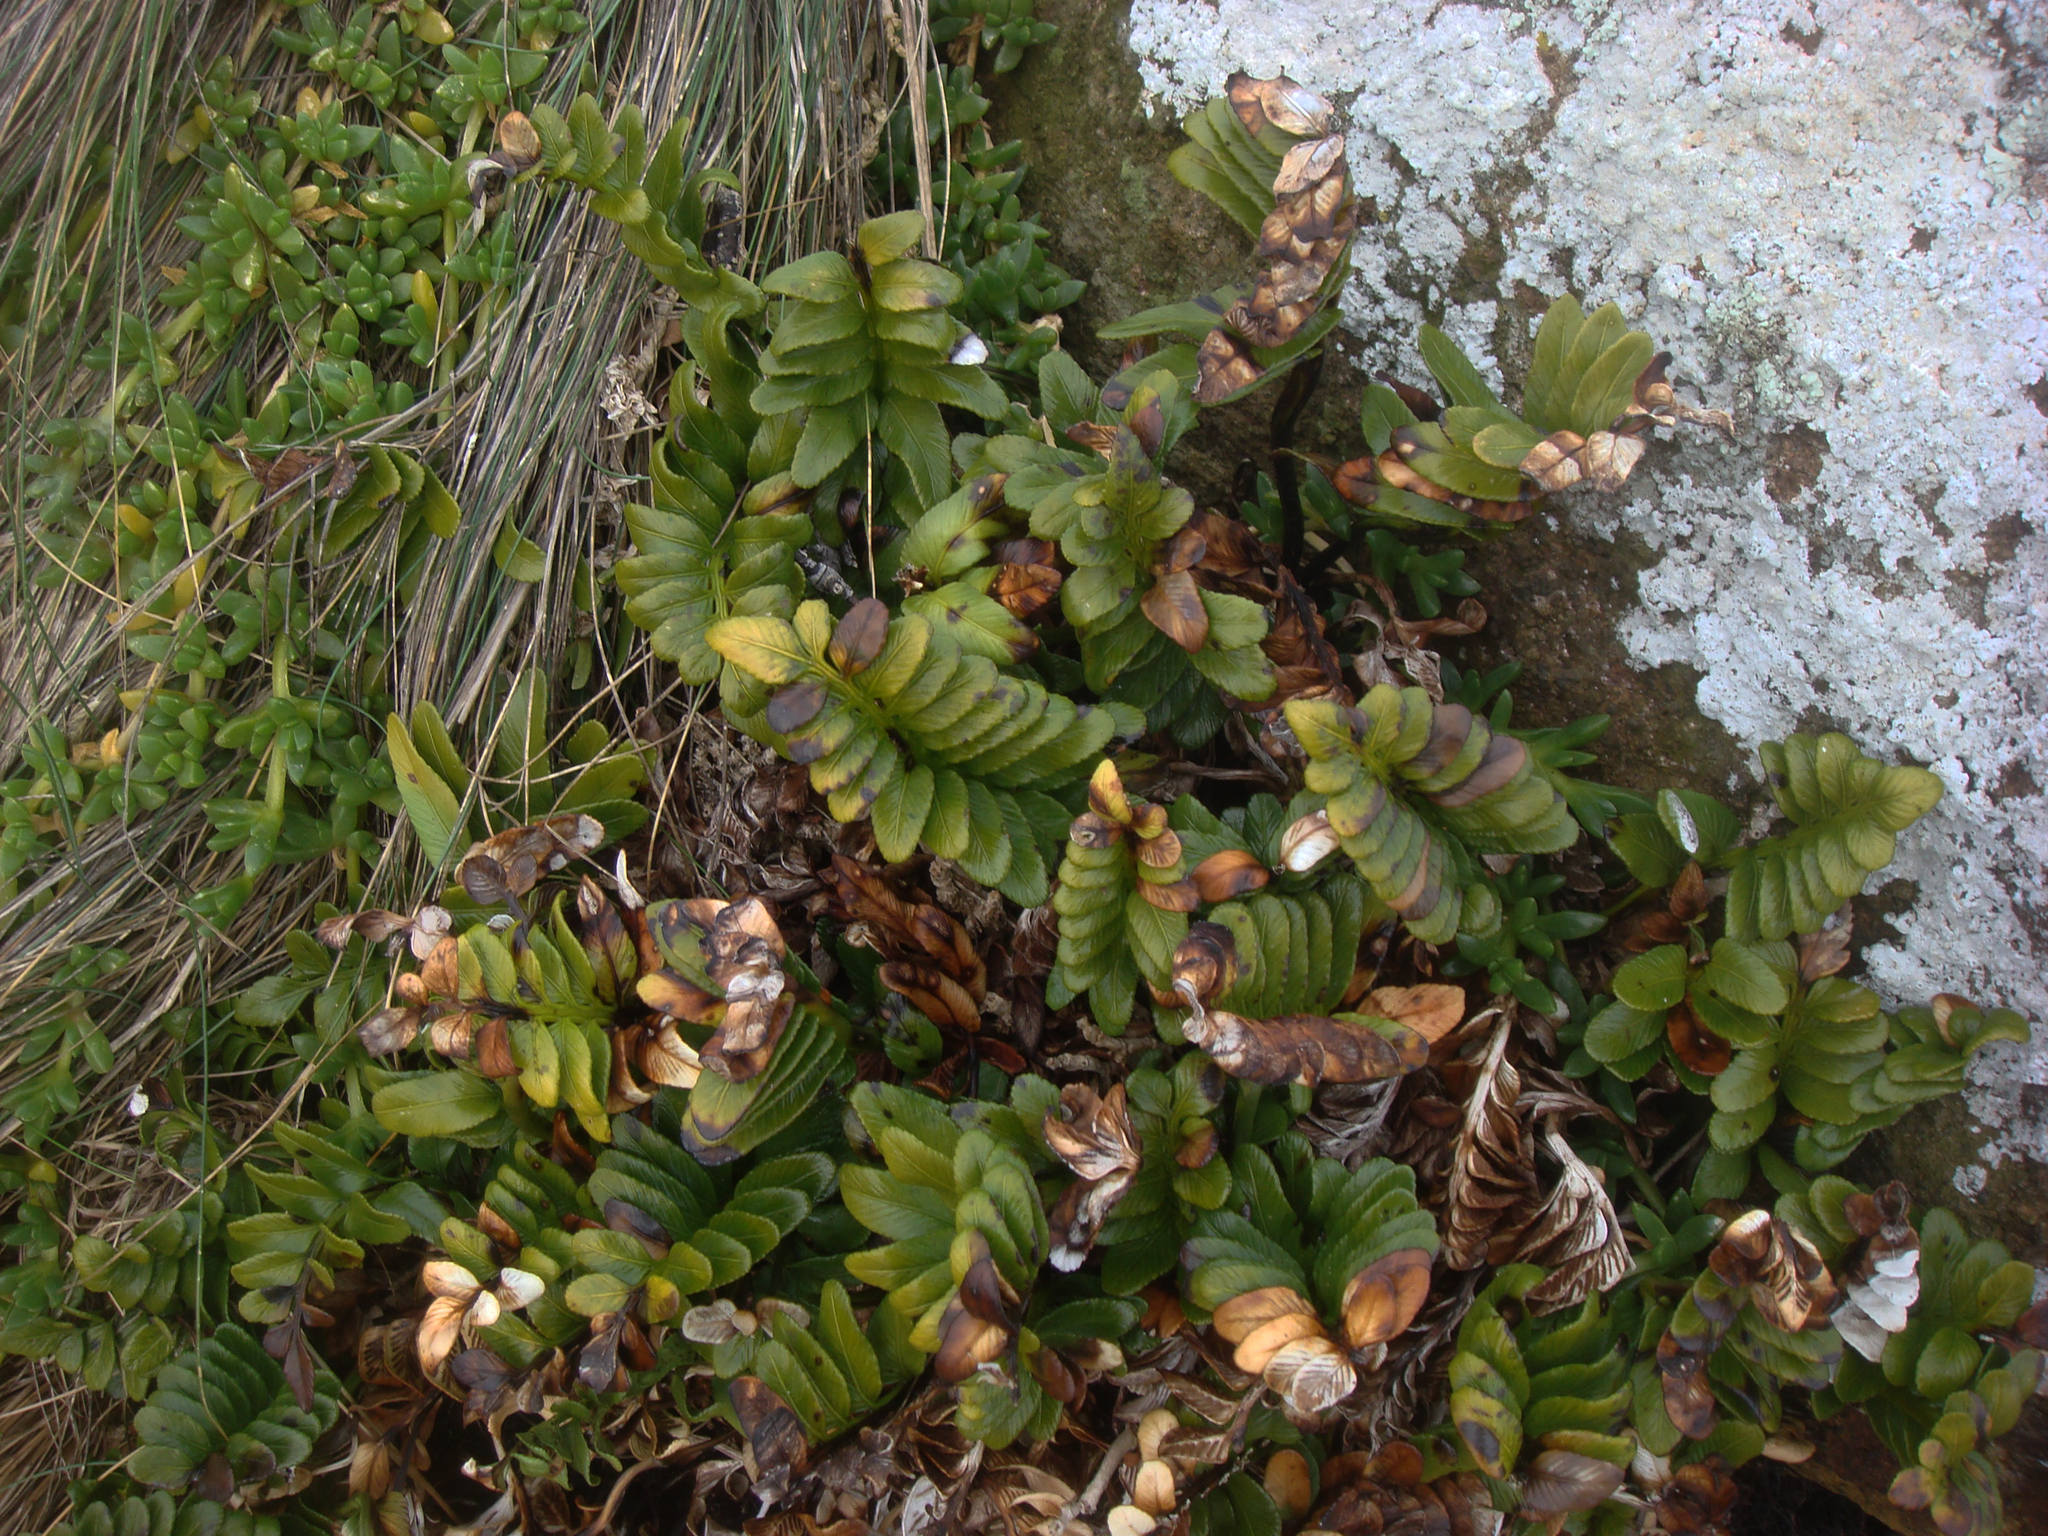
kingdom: Plantae
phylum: Tracheophyta
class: Polypodiopsida
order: Polypodiales
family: Aspleniaceae
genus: Asplenium
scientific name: Asplenium obtusatum
